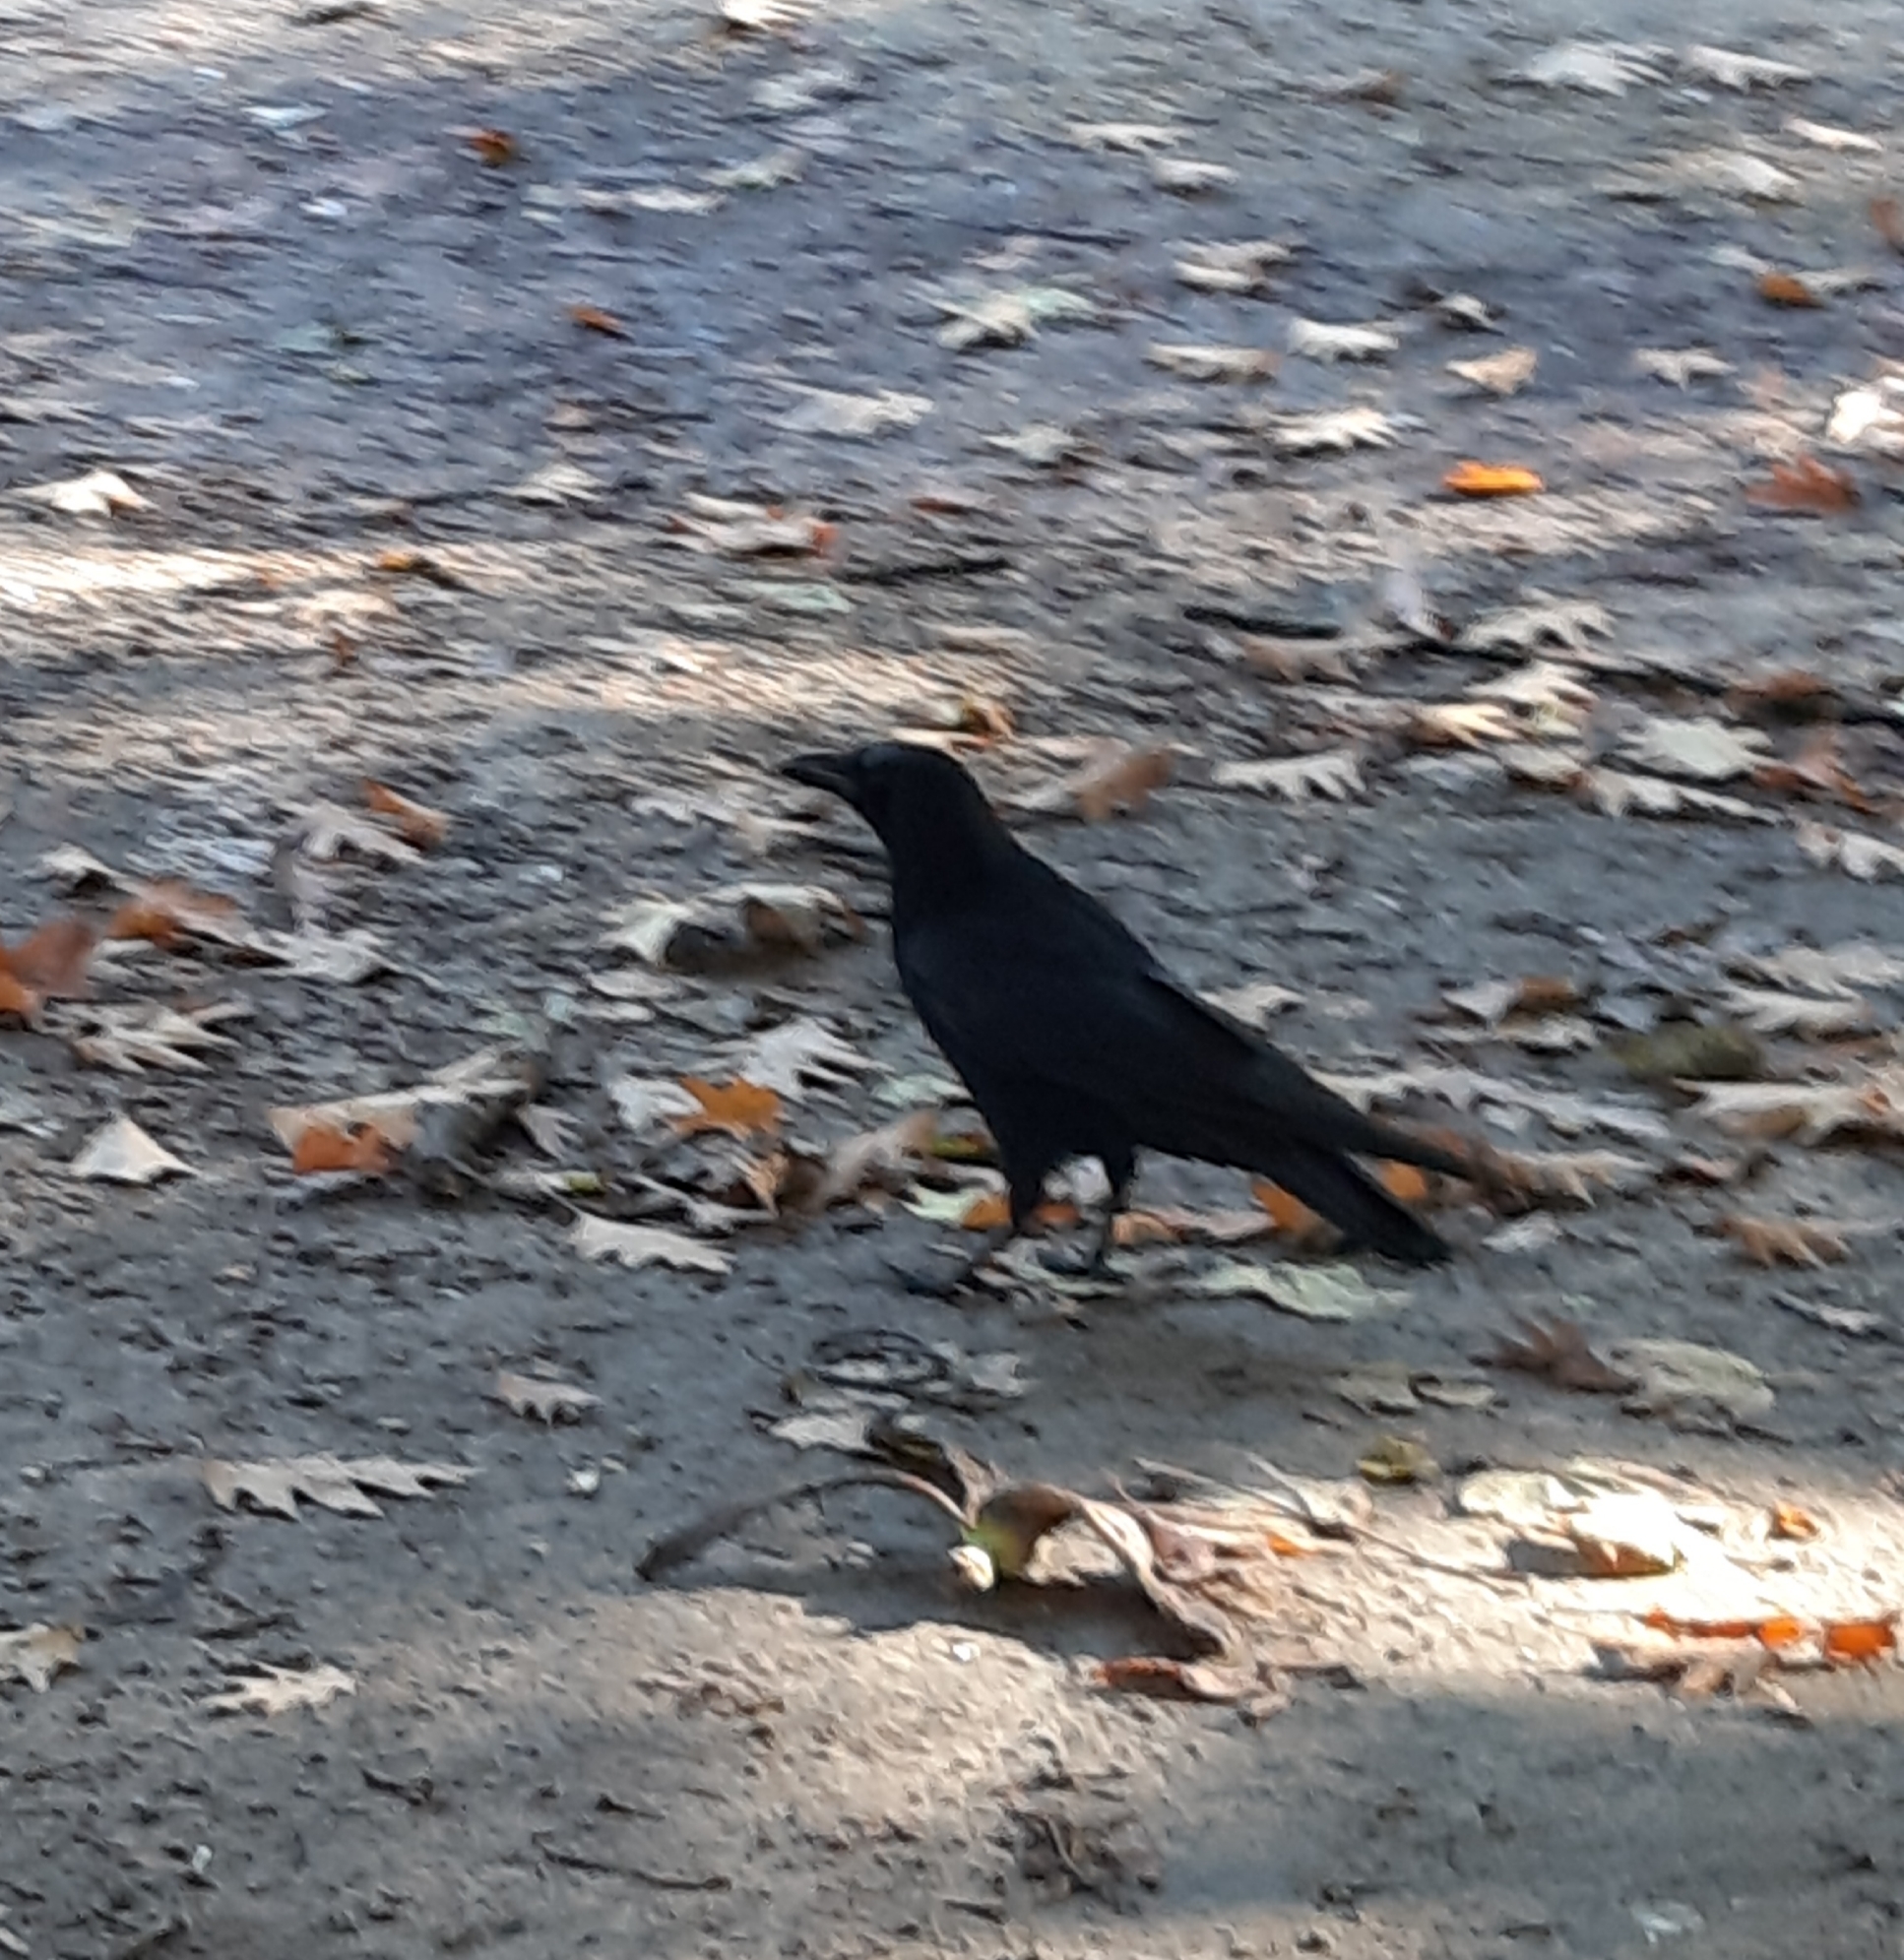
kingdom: Animalia
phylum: Chordata
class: Aves
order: Passeriformes
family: Corvidae
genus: Corvus
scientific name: Corvus corone
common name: Carrion crow
